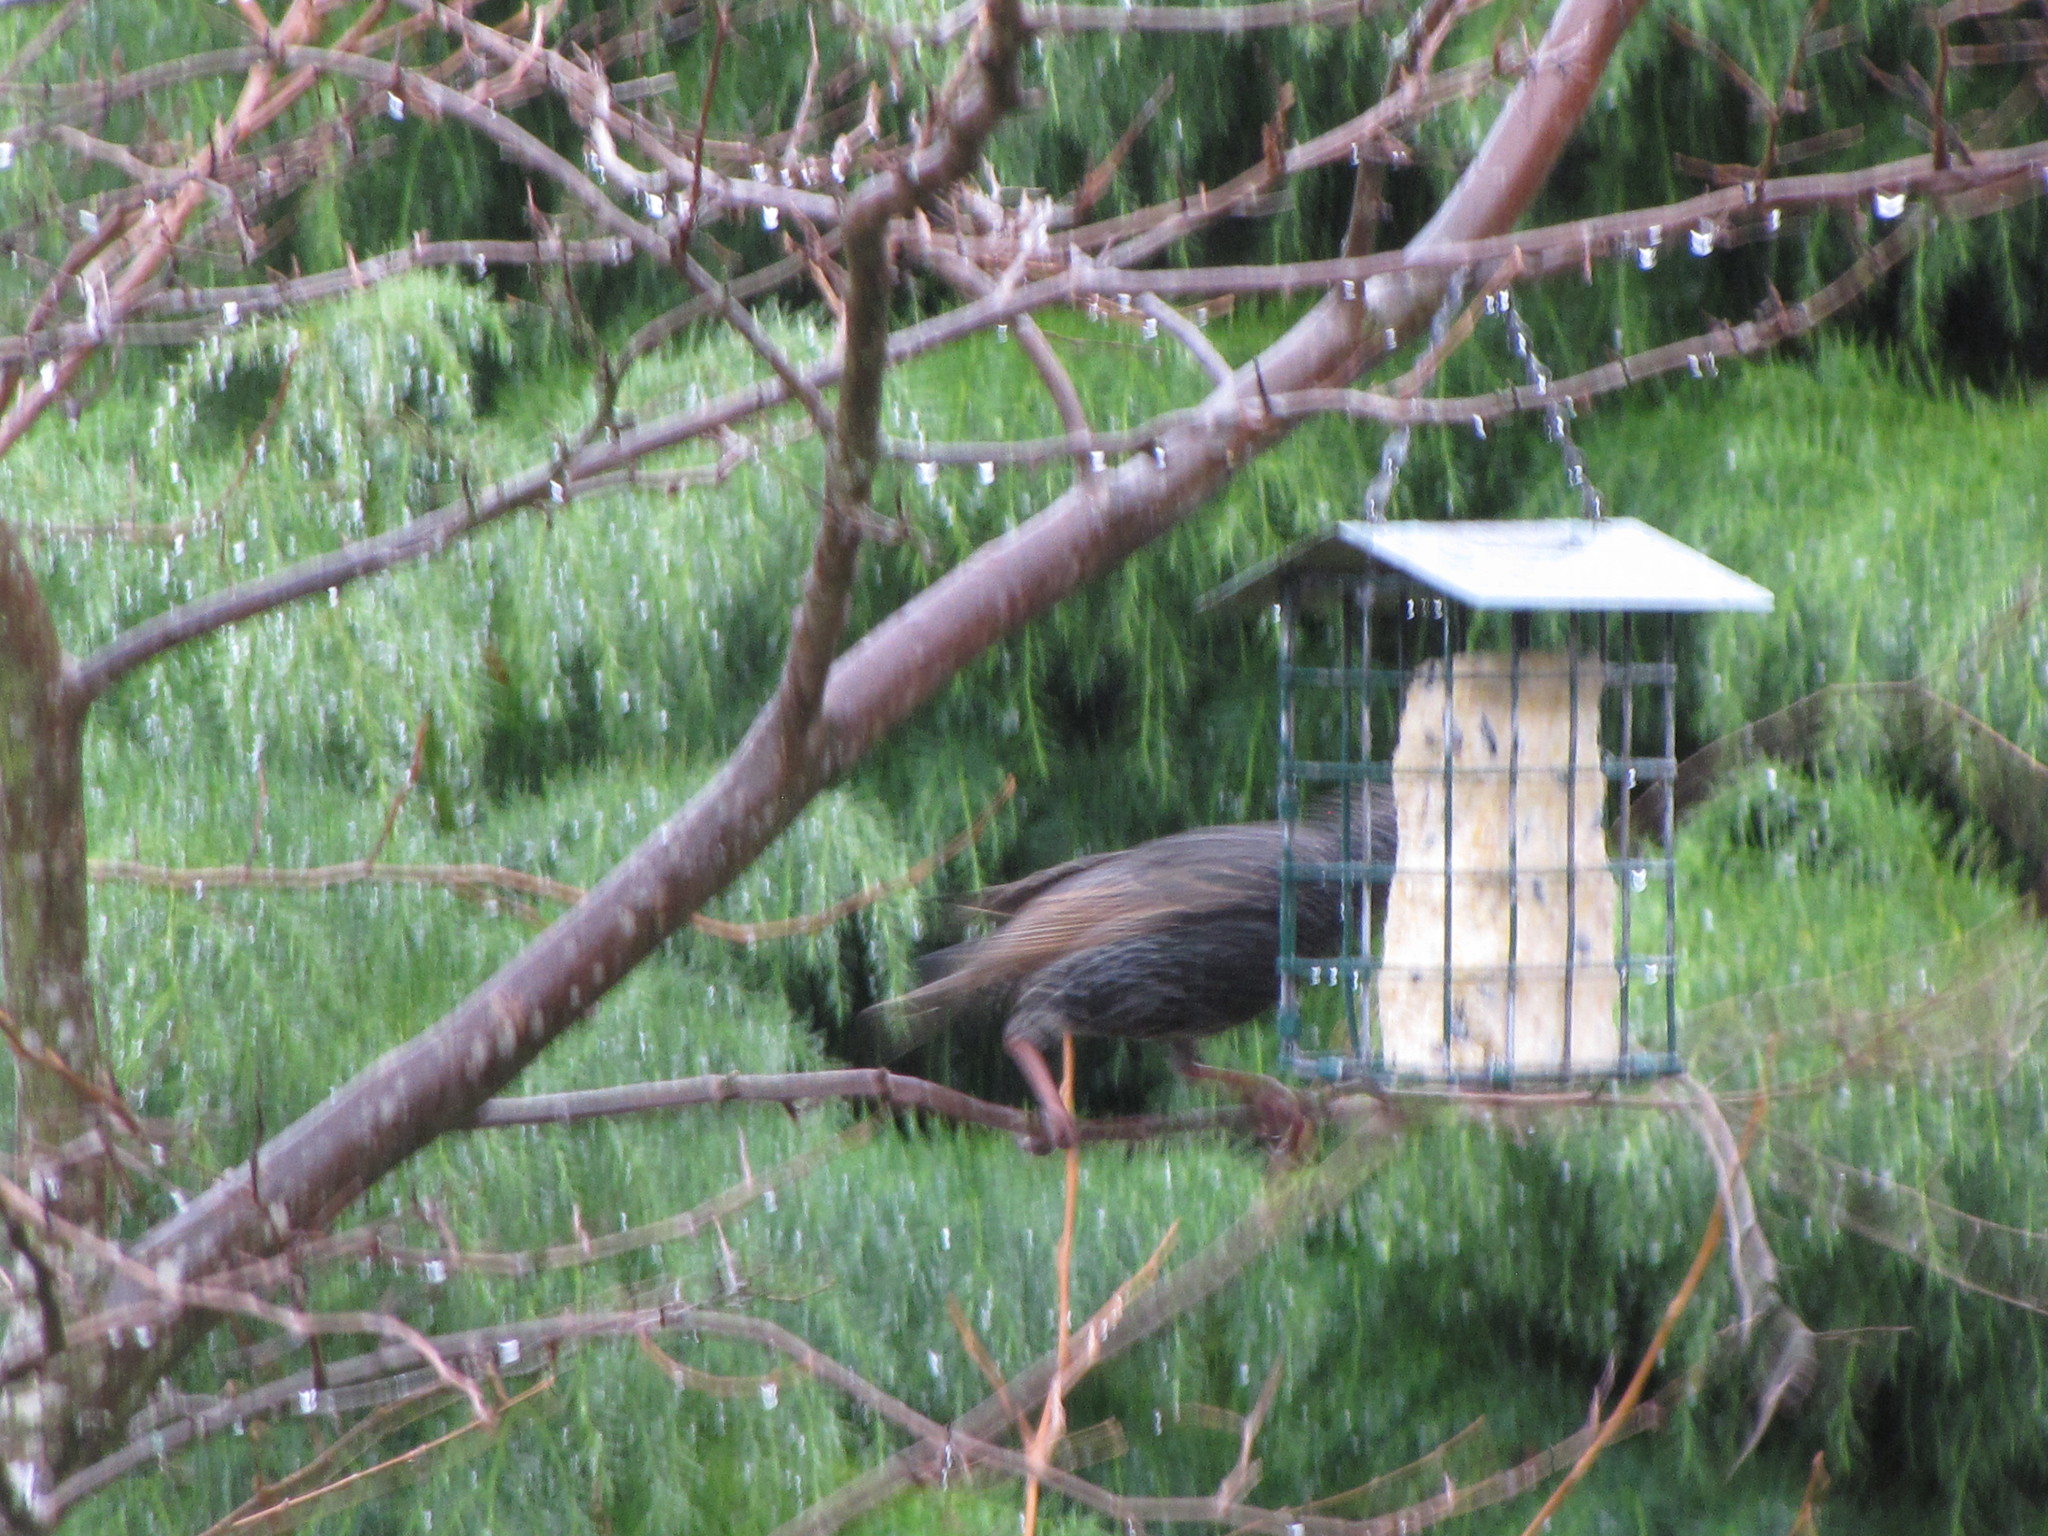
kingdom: Animalia
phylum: Chordata
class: Aves
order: Passeriformes
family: Sturnidae
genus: Sturnus
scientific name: Sturnus vulgaris
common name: Common starling
